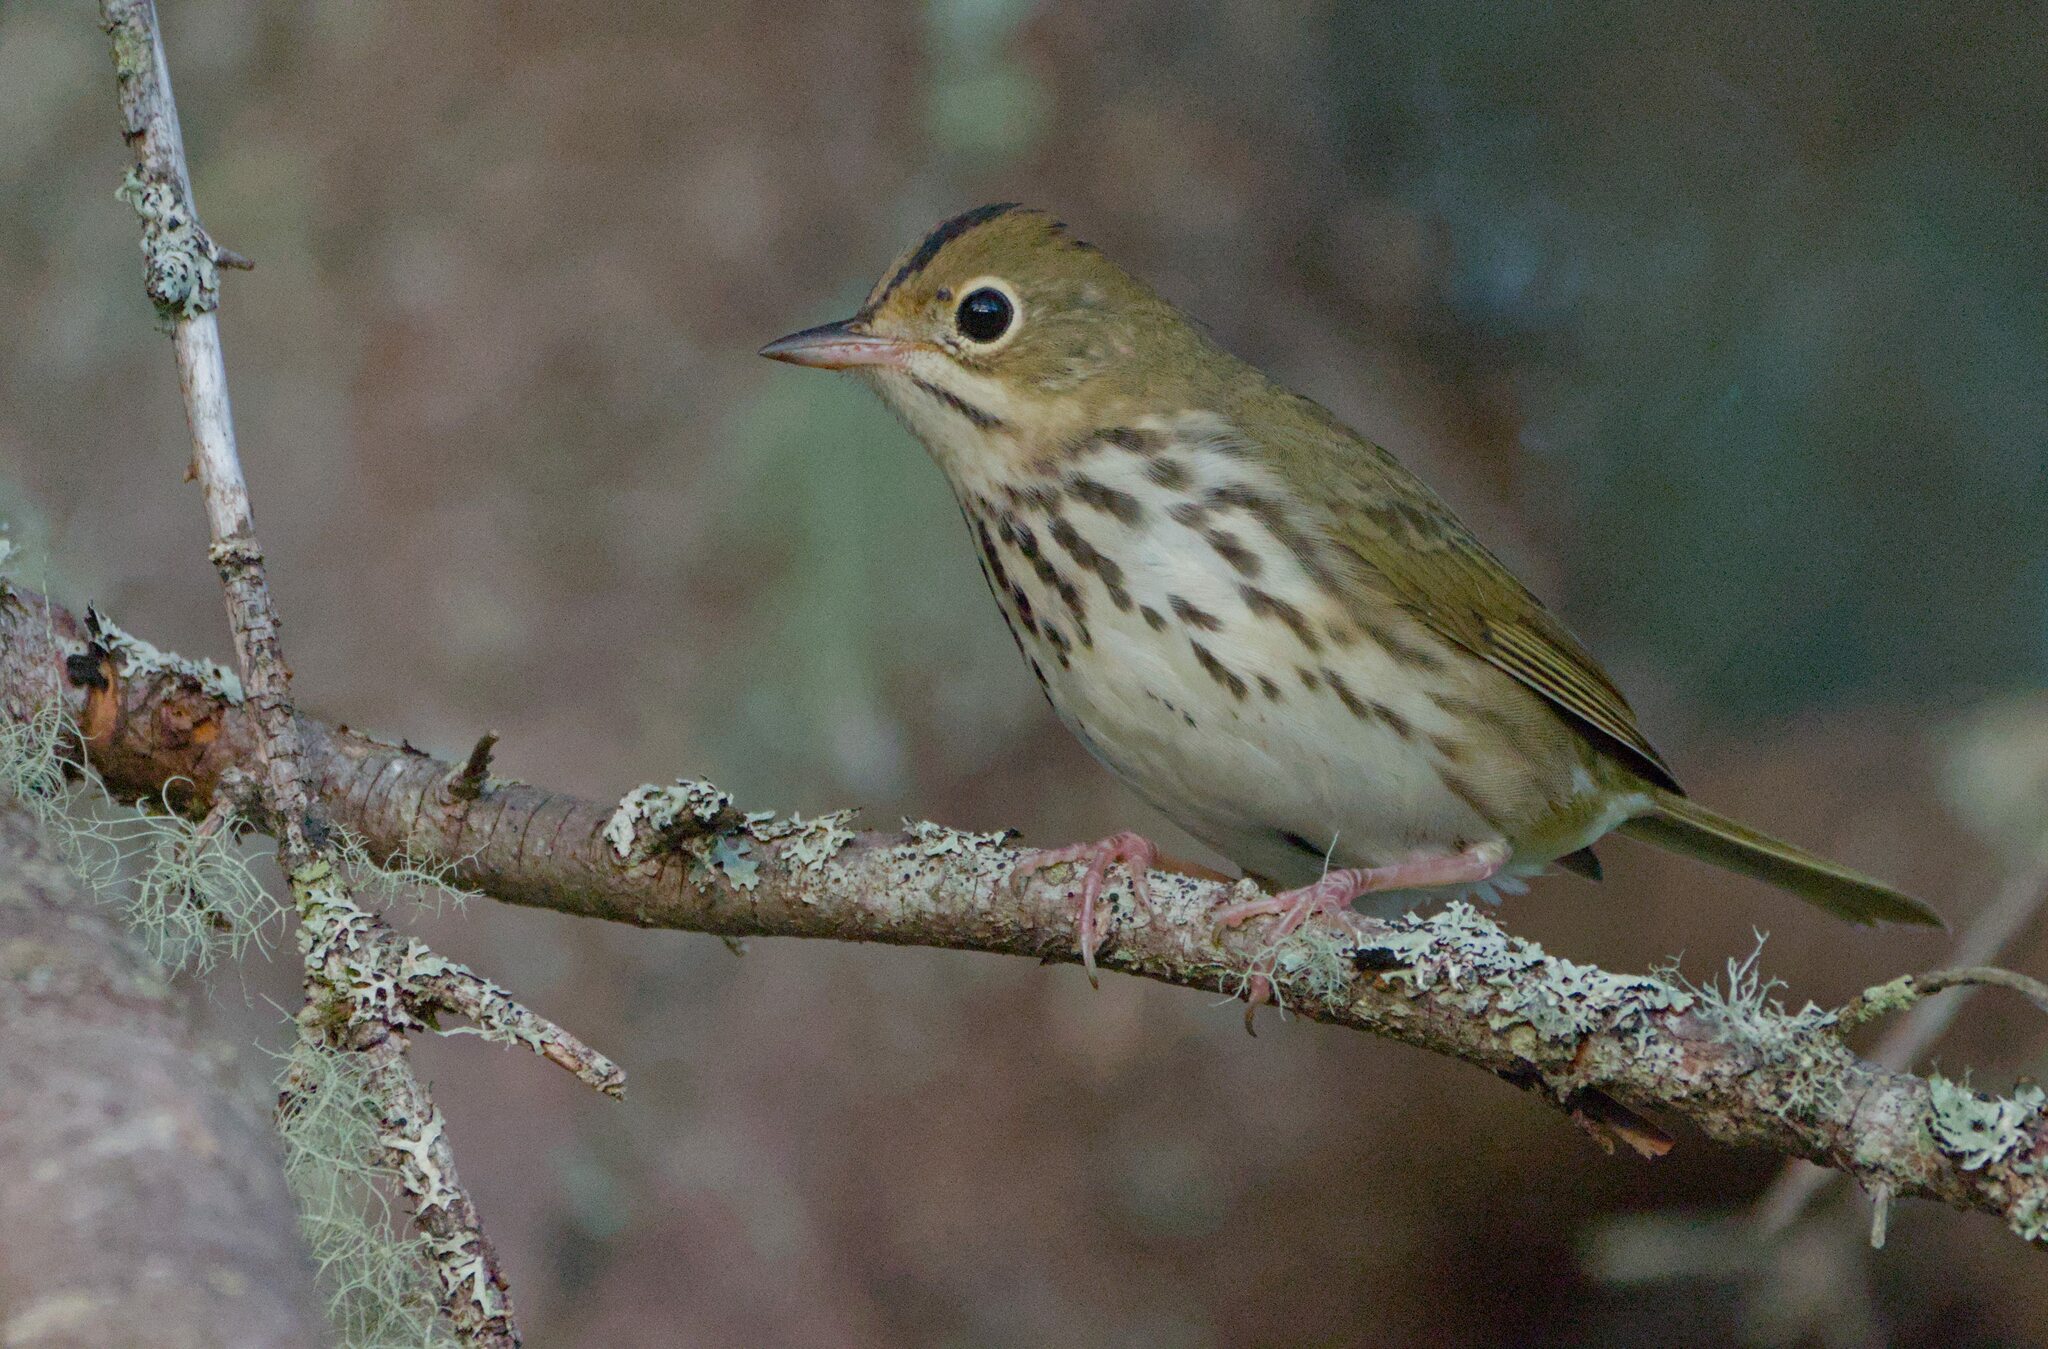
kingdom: Animalia
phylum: Chordata
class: Aves
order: Passeriformes
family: Parulidae
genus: Seiurus
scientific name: Seiurus aurocapilla
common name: Ovenbird
